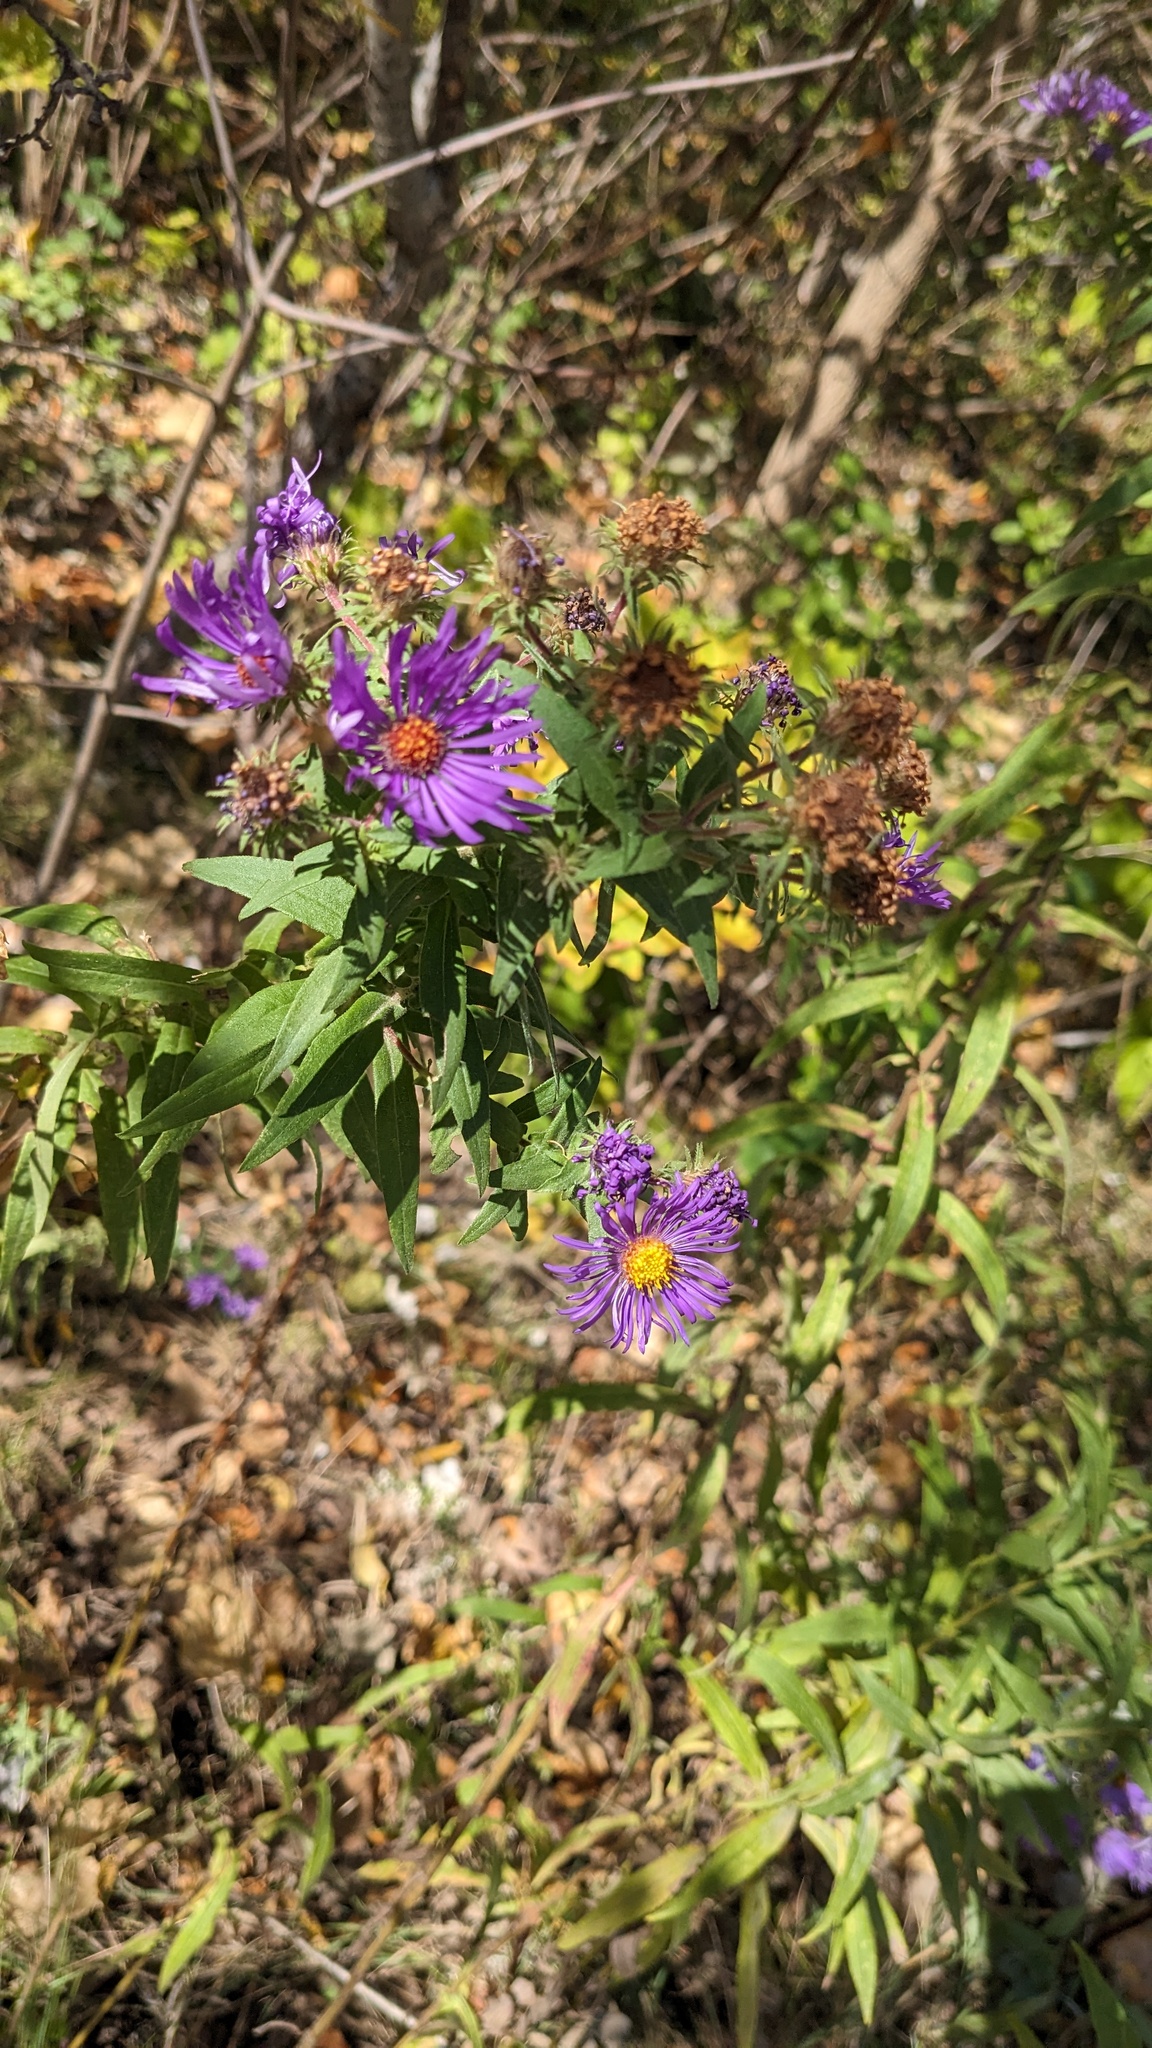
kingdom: Plantae
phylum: Tracheophyta
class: Magnoliopsida
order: Asterales
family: Asteraceae
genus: Symphyotrichum
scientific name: Symphyotrichum novae-angliae
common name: Michaelmas daisy
